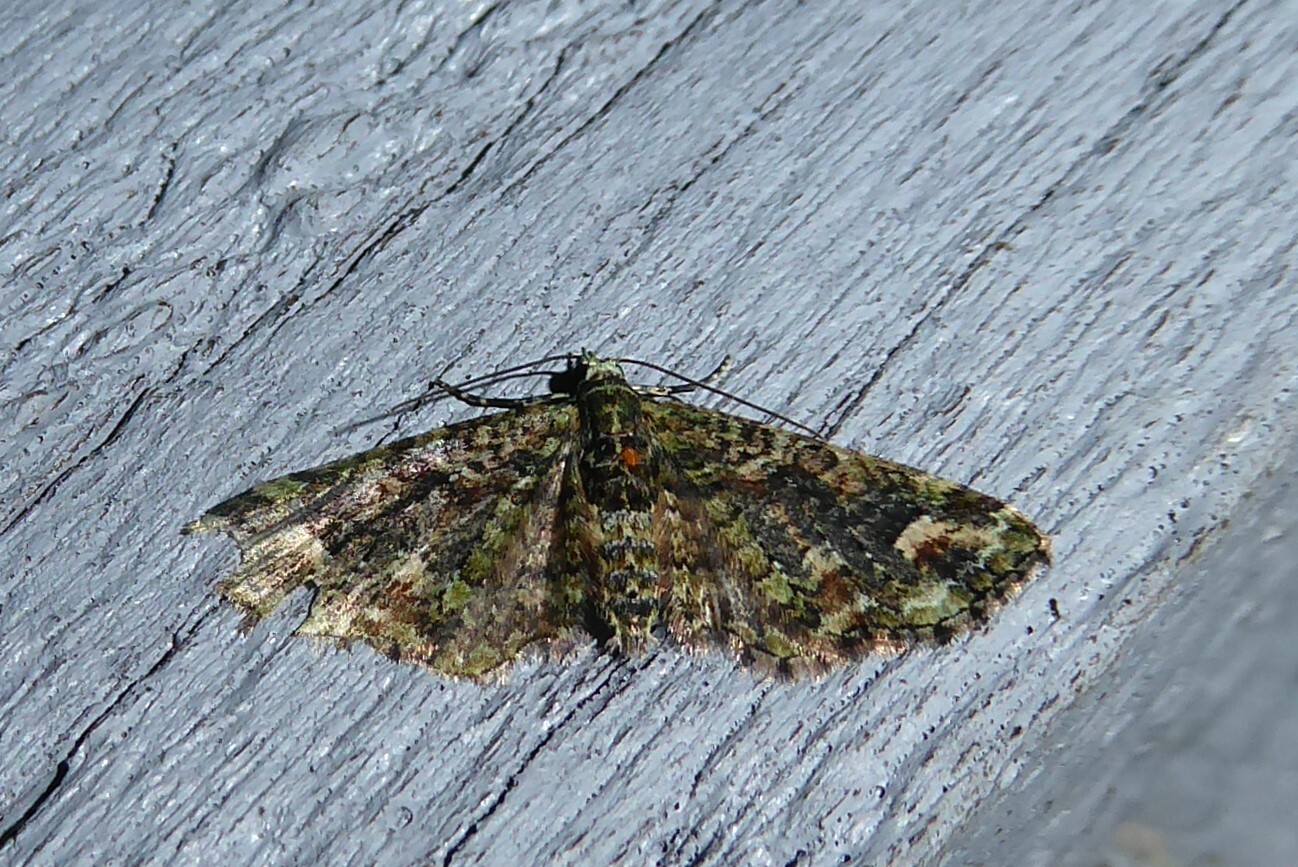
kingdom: Animalia
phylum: Arthropoda
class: Insecta
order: Lepidoptera
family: Geometridae
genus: Idaea
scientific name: Idaea mutanda
